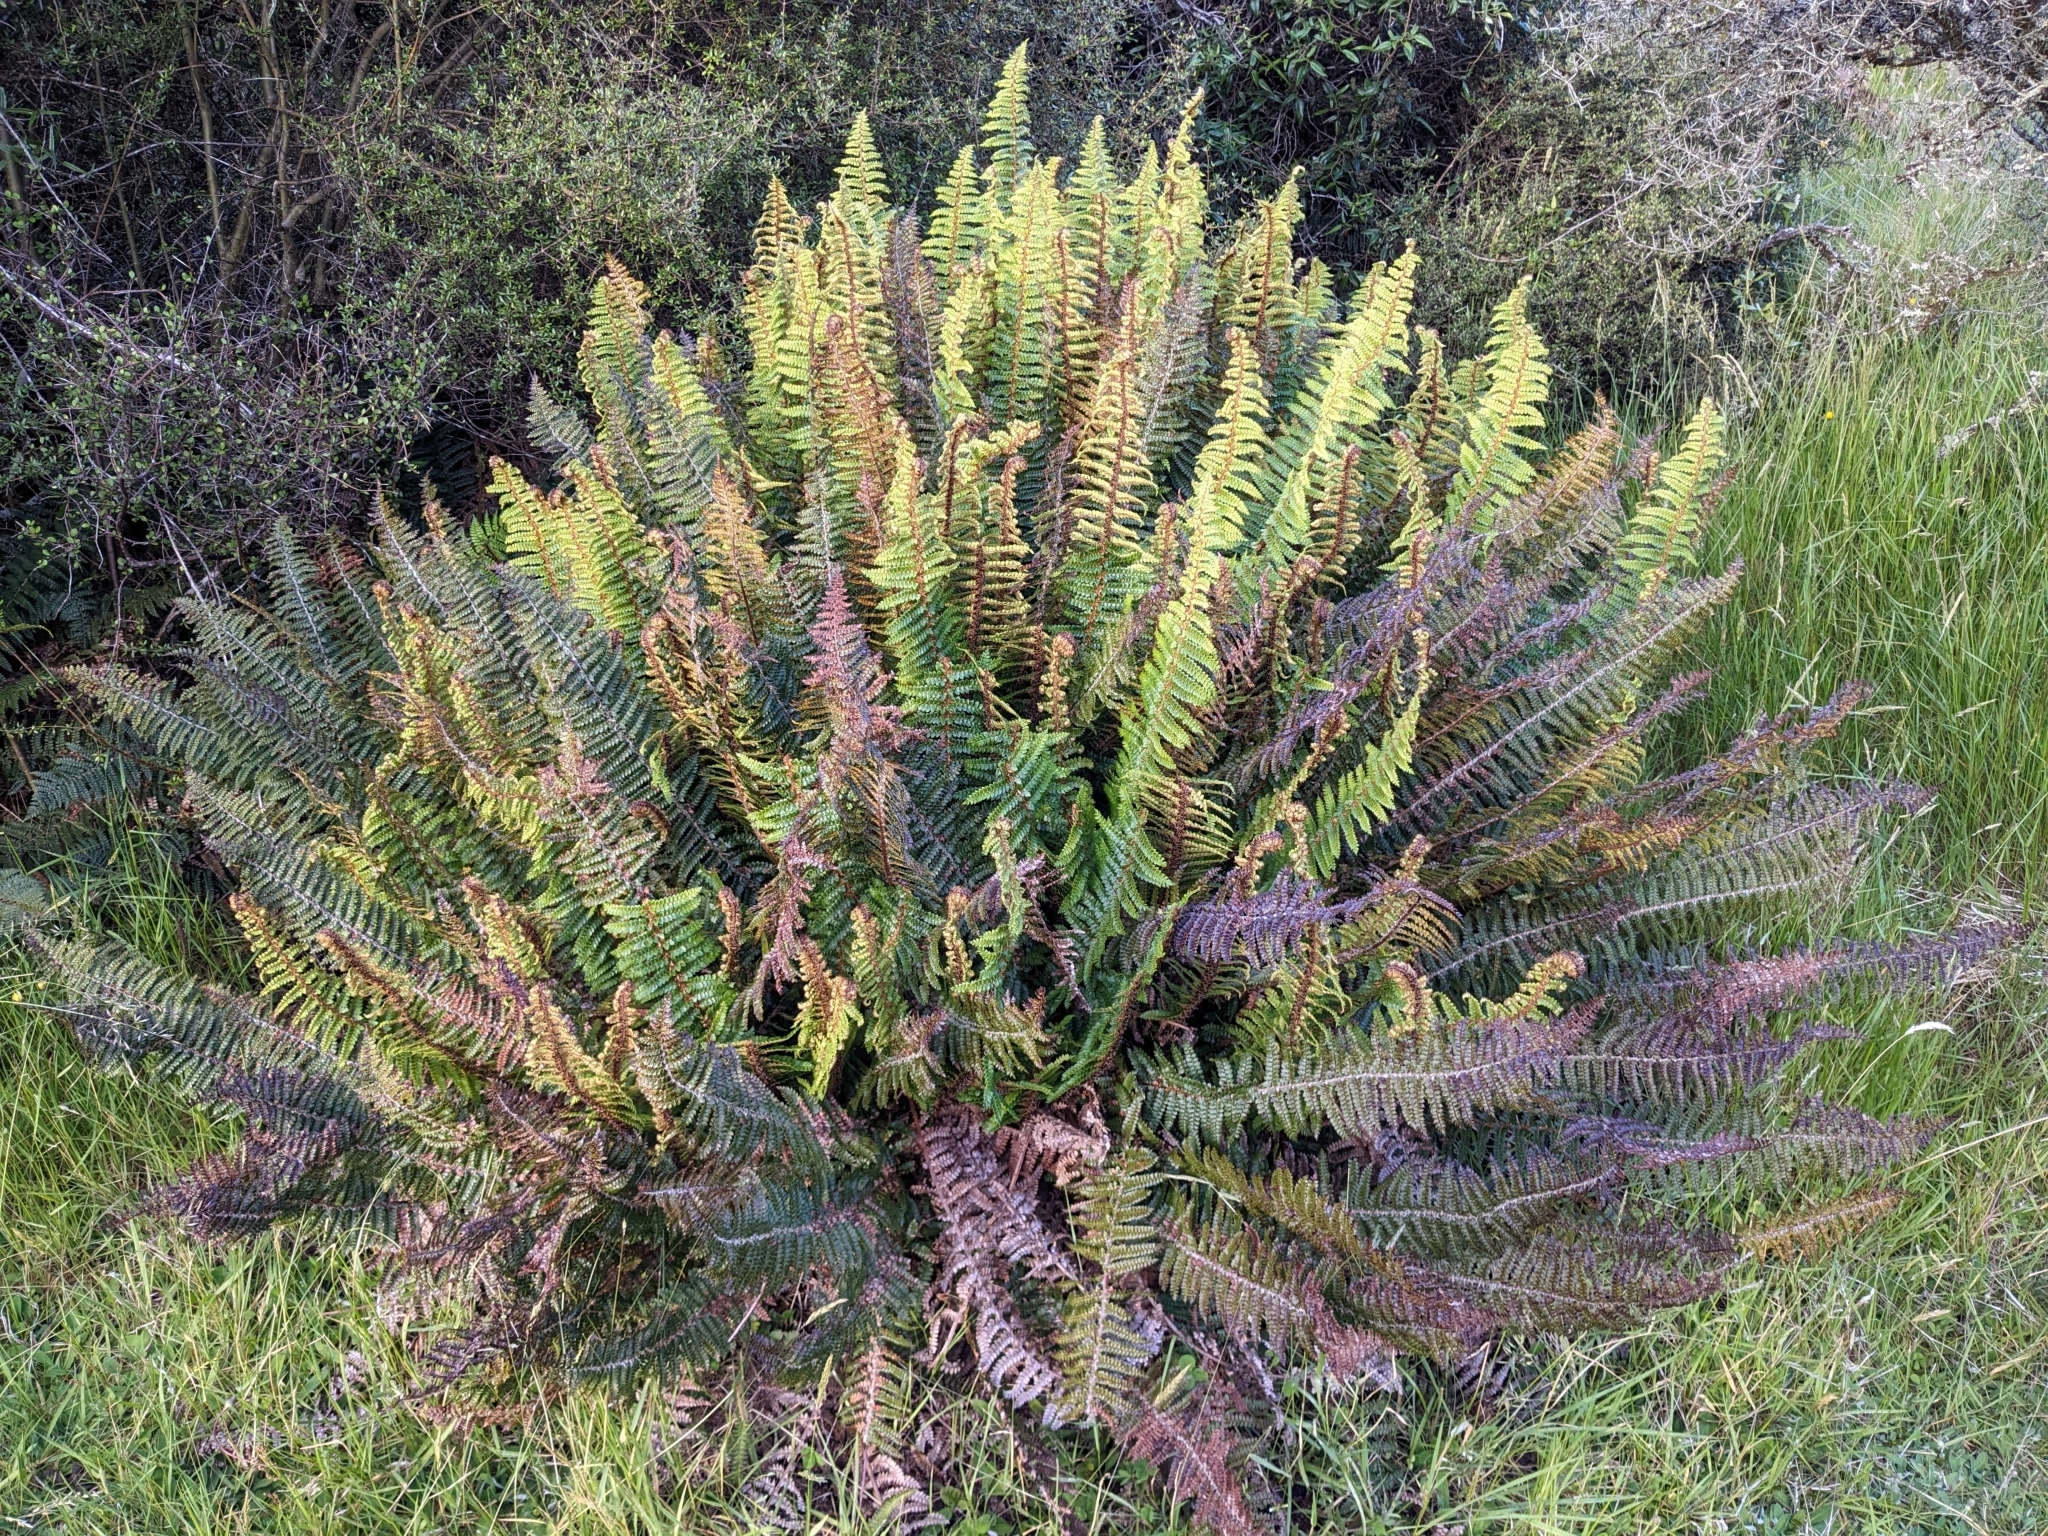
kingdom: Plantae
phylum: Tracheophyta
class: Polypodiopsida
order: Polypodiales
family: Dryopteridaceae
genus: Polystichum
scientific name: Polystichum vestitum
